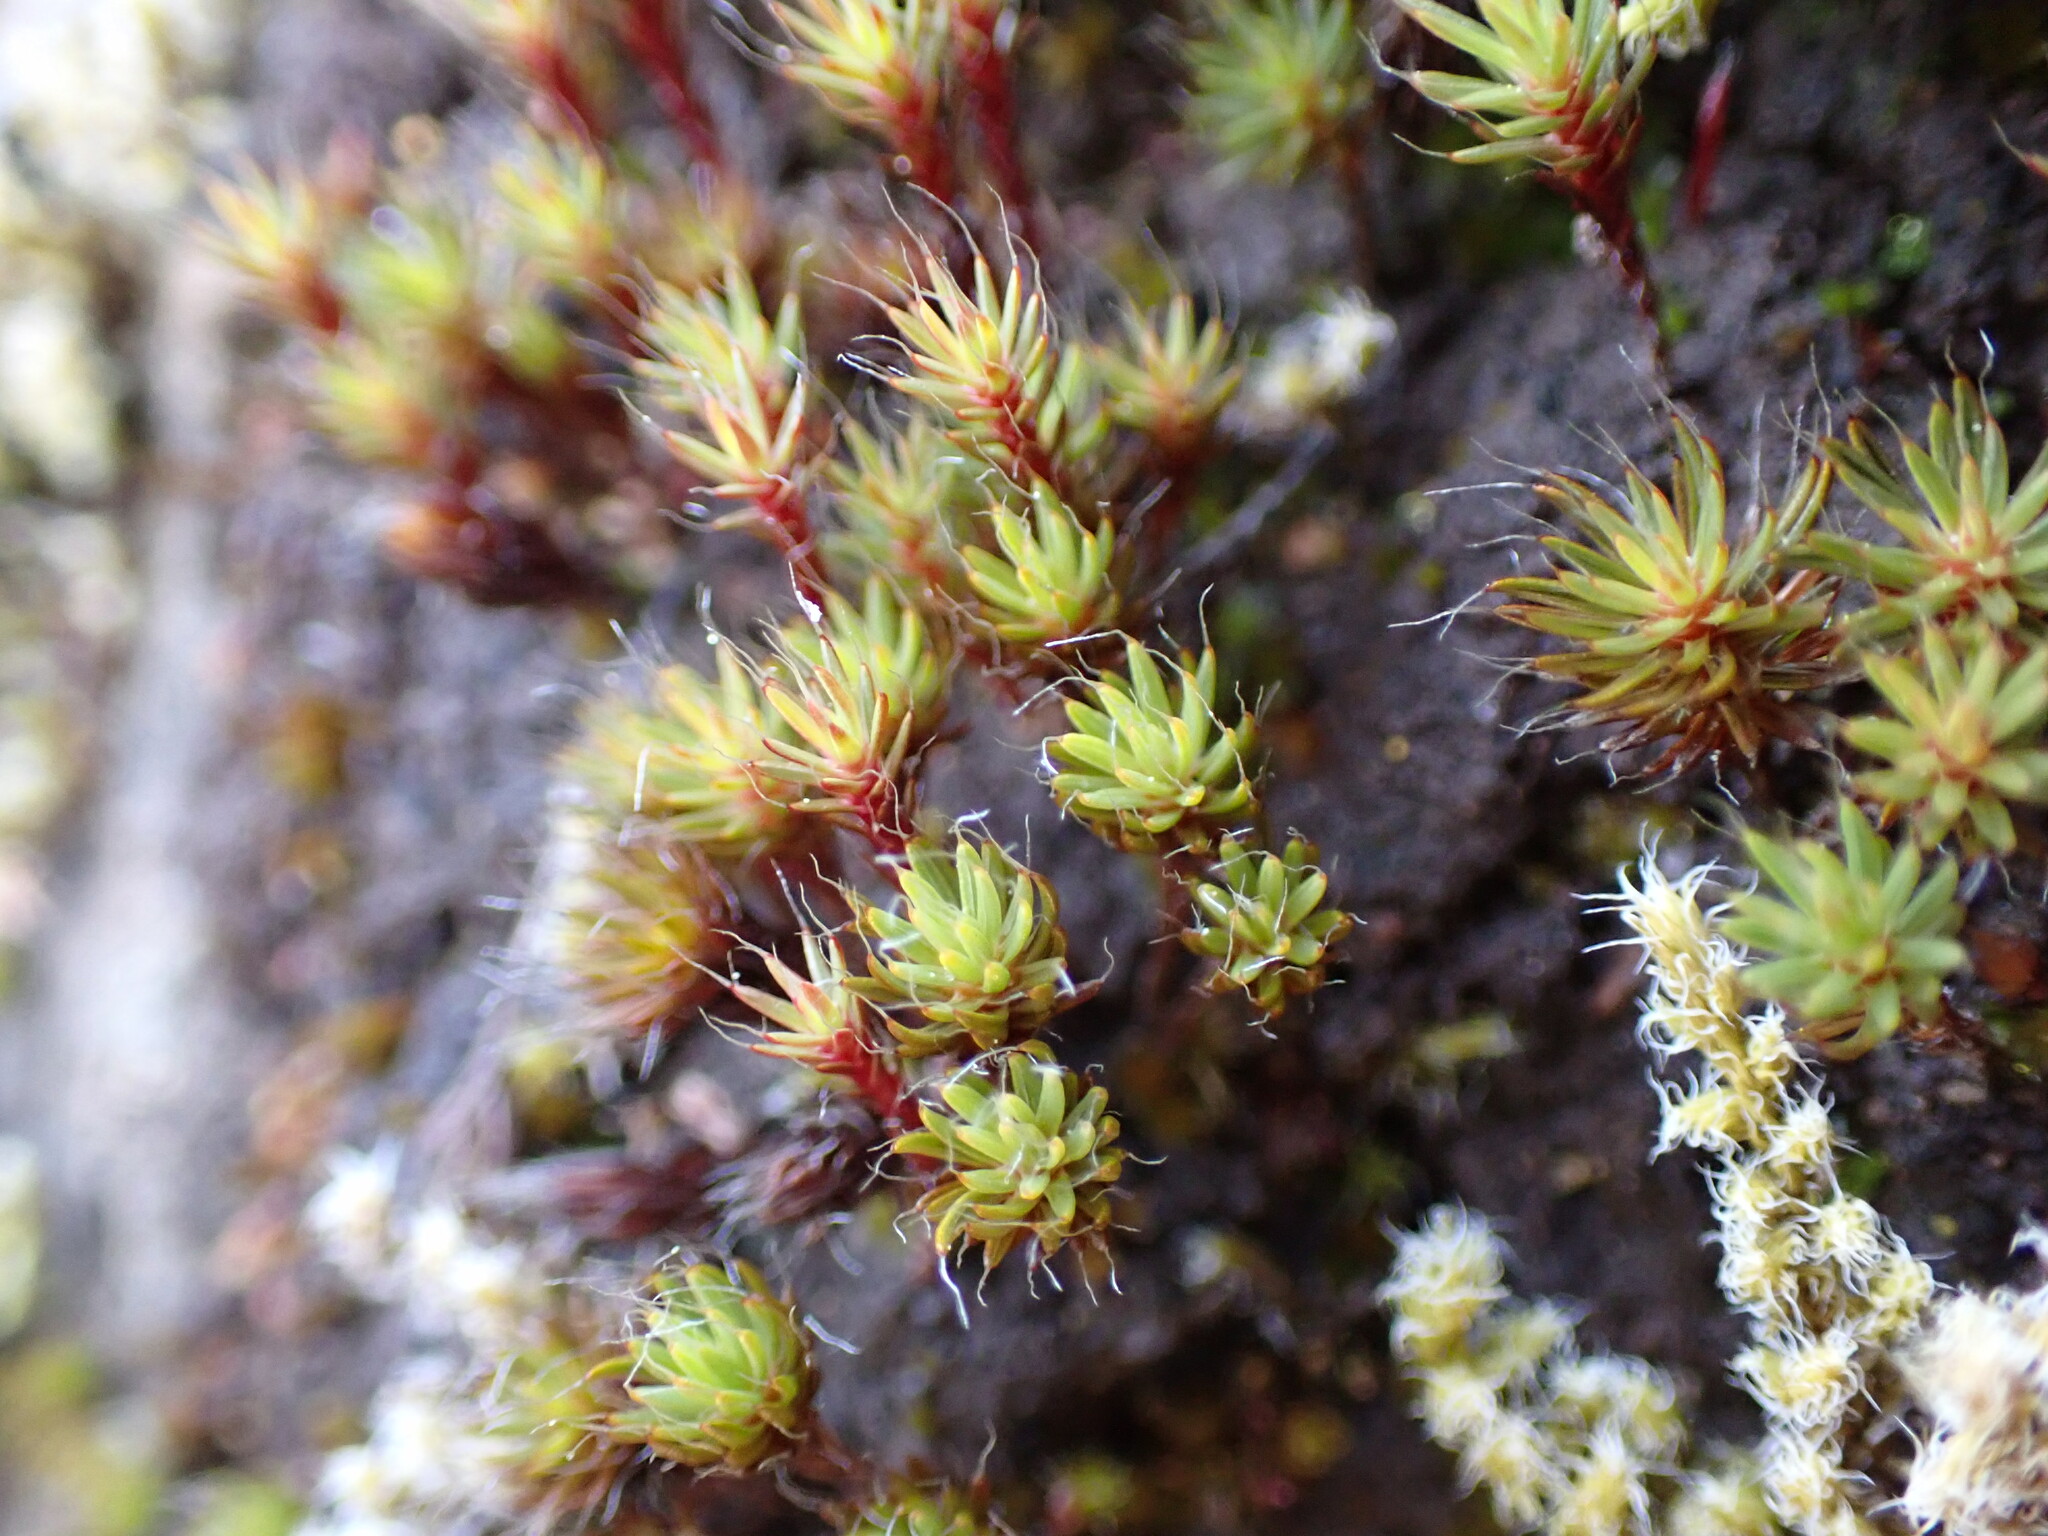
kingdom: Plantae
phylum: Bryophyta
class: Polytrichopsida
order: Polytrichales
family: Polytrichaceae
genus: Polytrichum
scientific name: Polytrichum piliferum
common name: Bristly haircap
